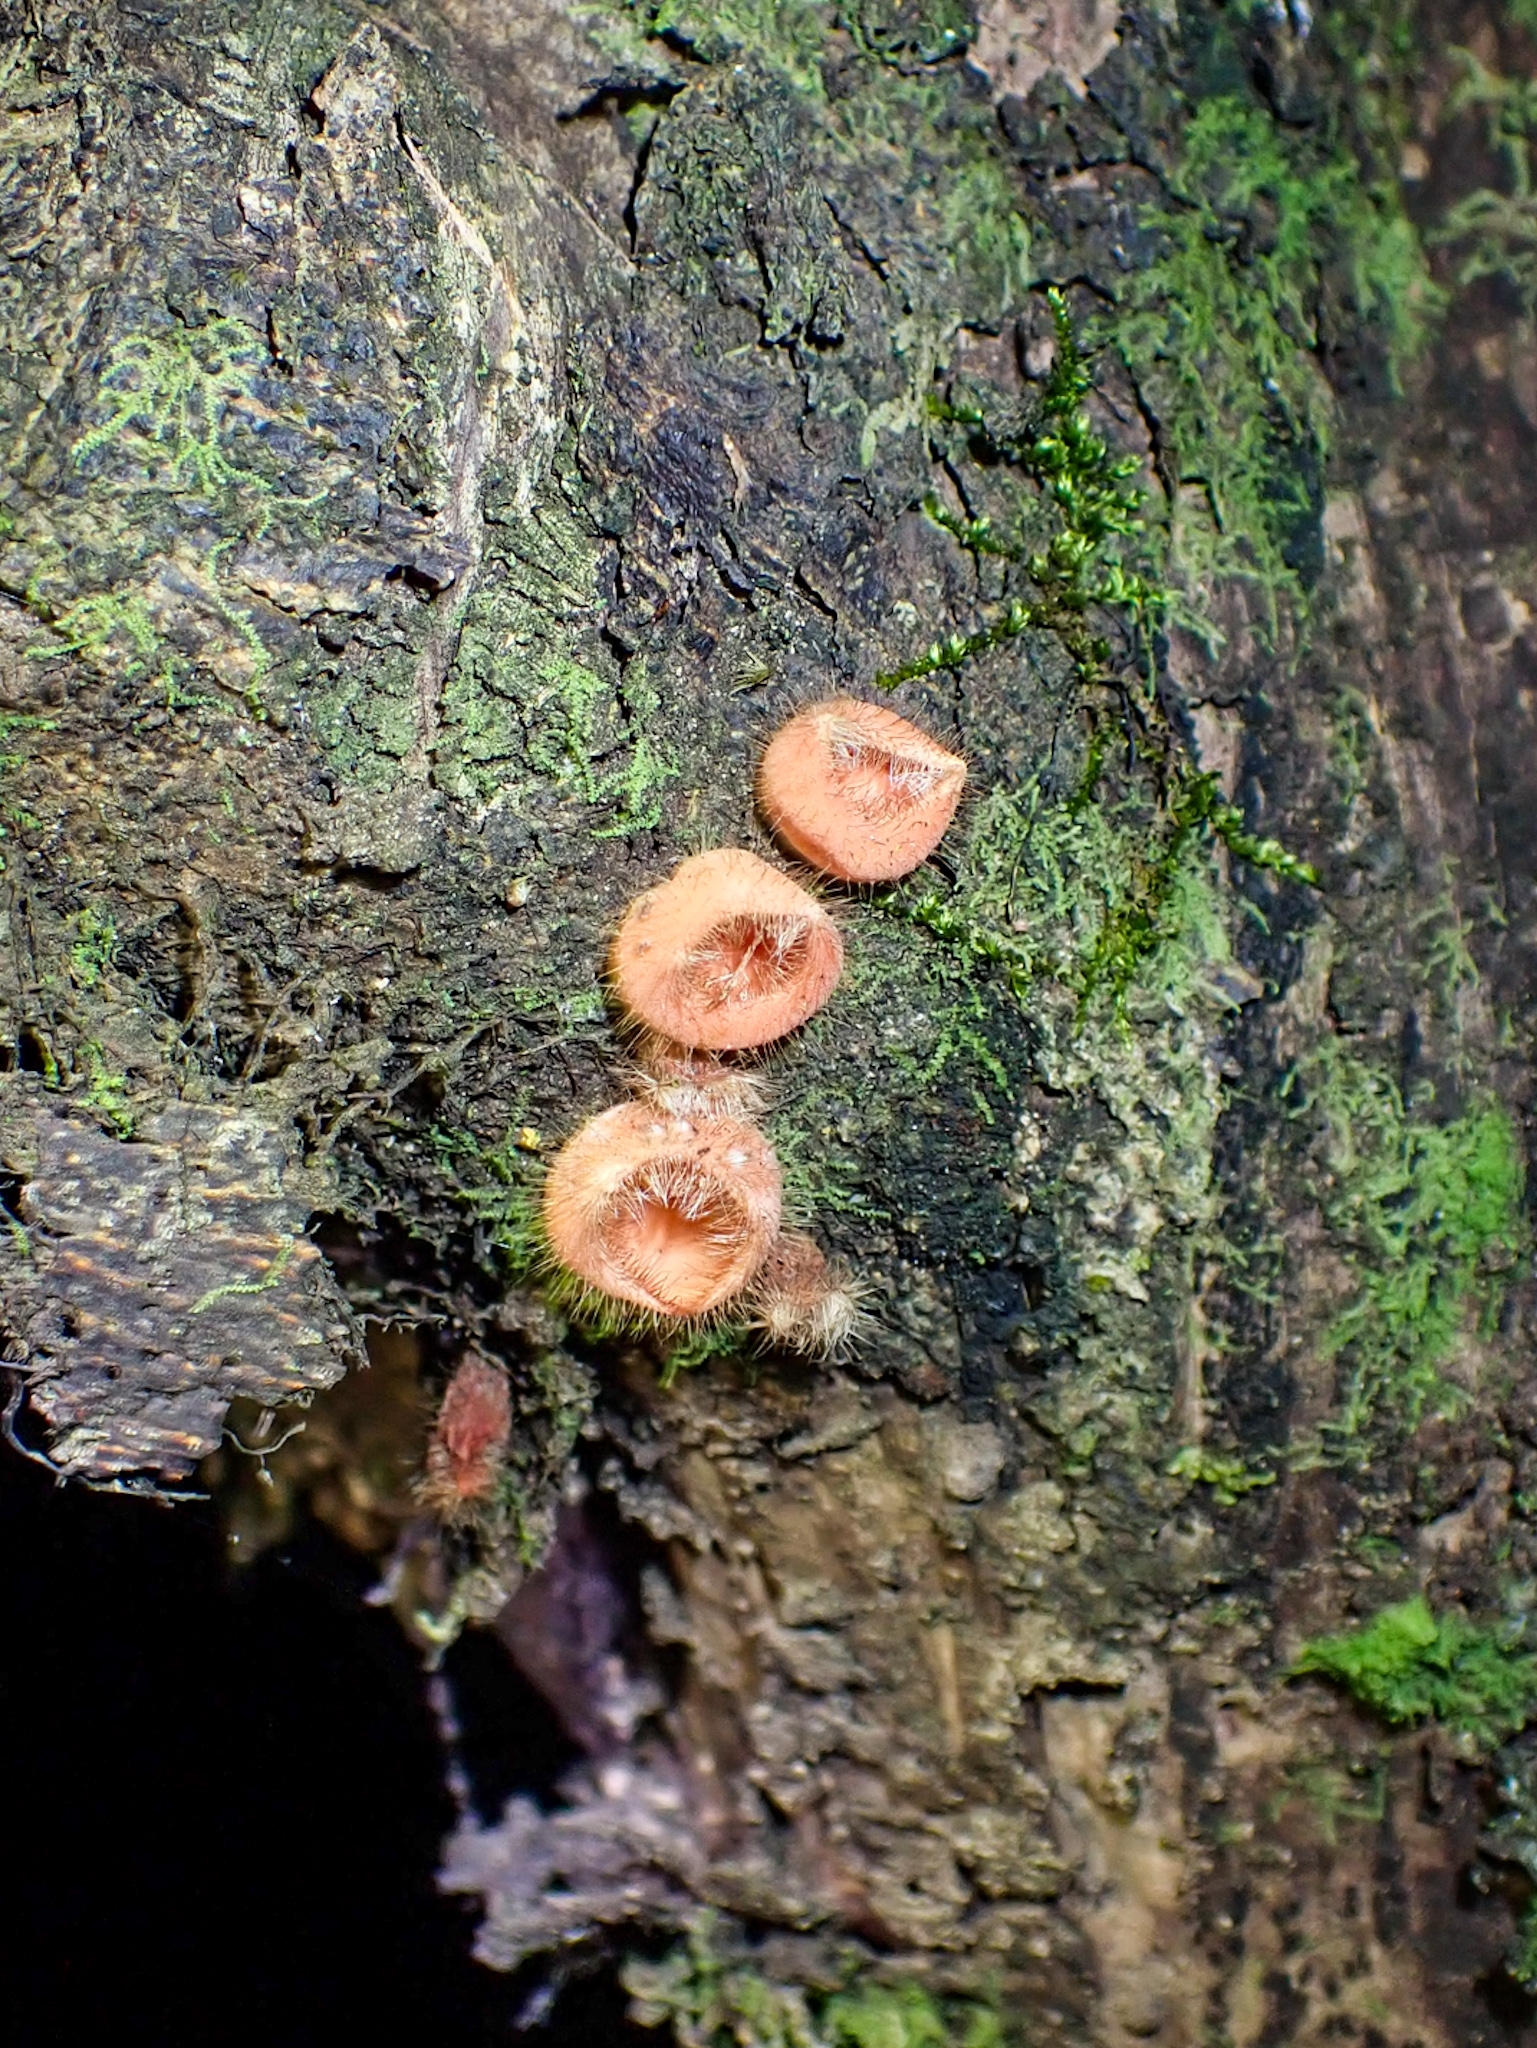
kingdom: Fungi
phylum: Ascomycota
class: Pezizomycetes
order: Pezizales
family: Sarcoscyphaceae
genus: Cookeina
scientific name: Cookeina tricholoma
